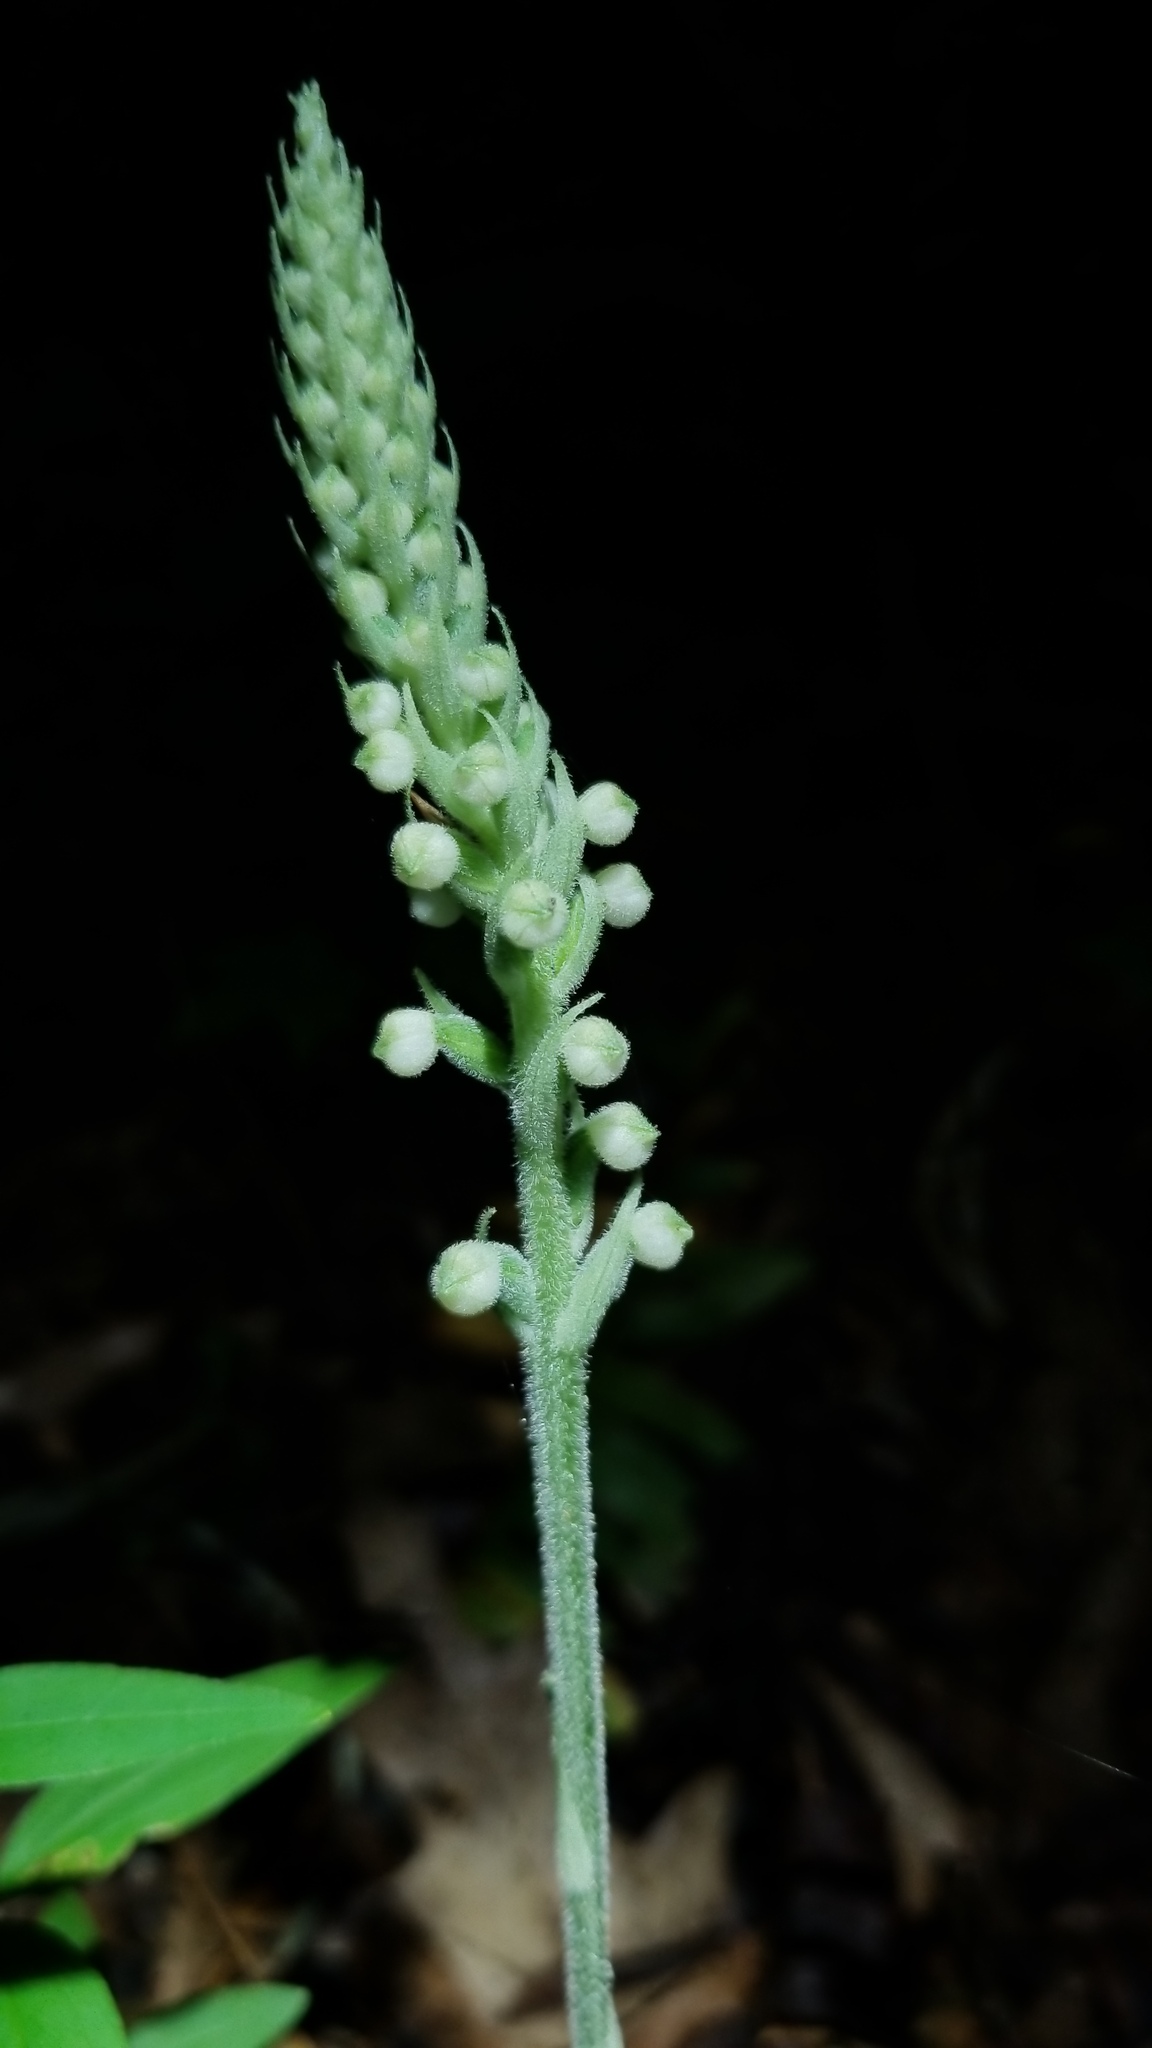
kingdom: Plantae
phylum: Tracheophyta
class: Liliopsida
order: Asparagales
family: Orchidaceae
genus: Goodyera
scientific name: Goodyera pubescens
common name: Downy rattlesnake-plantain
